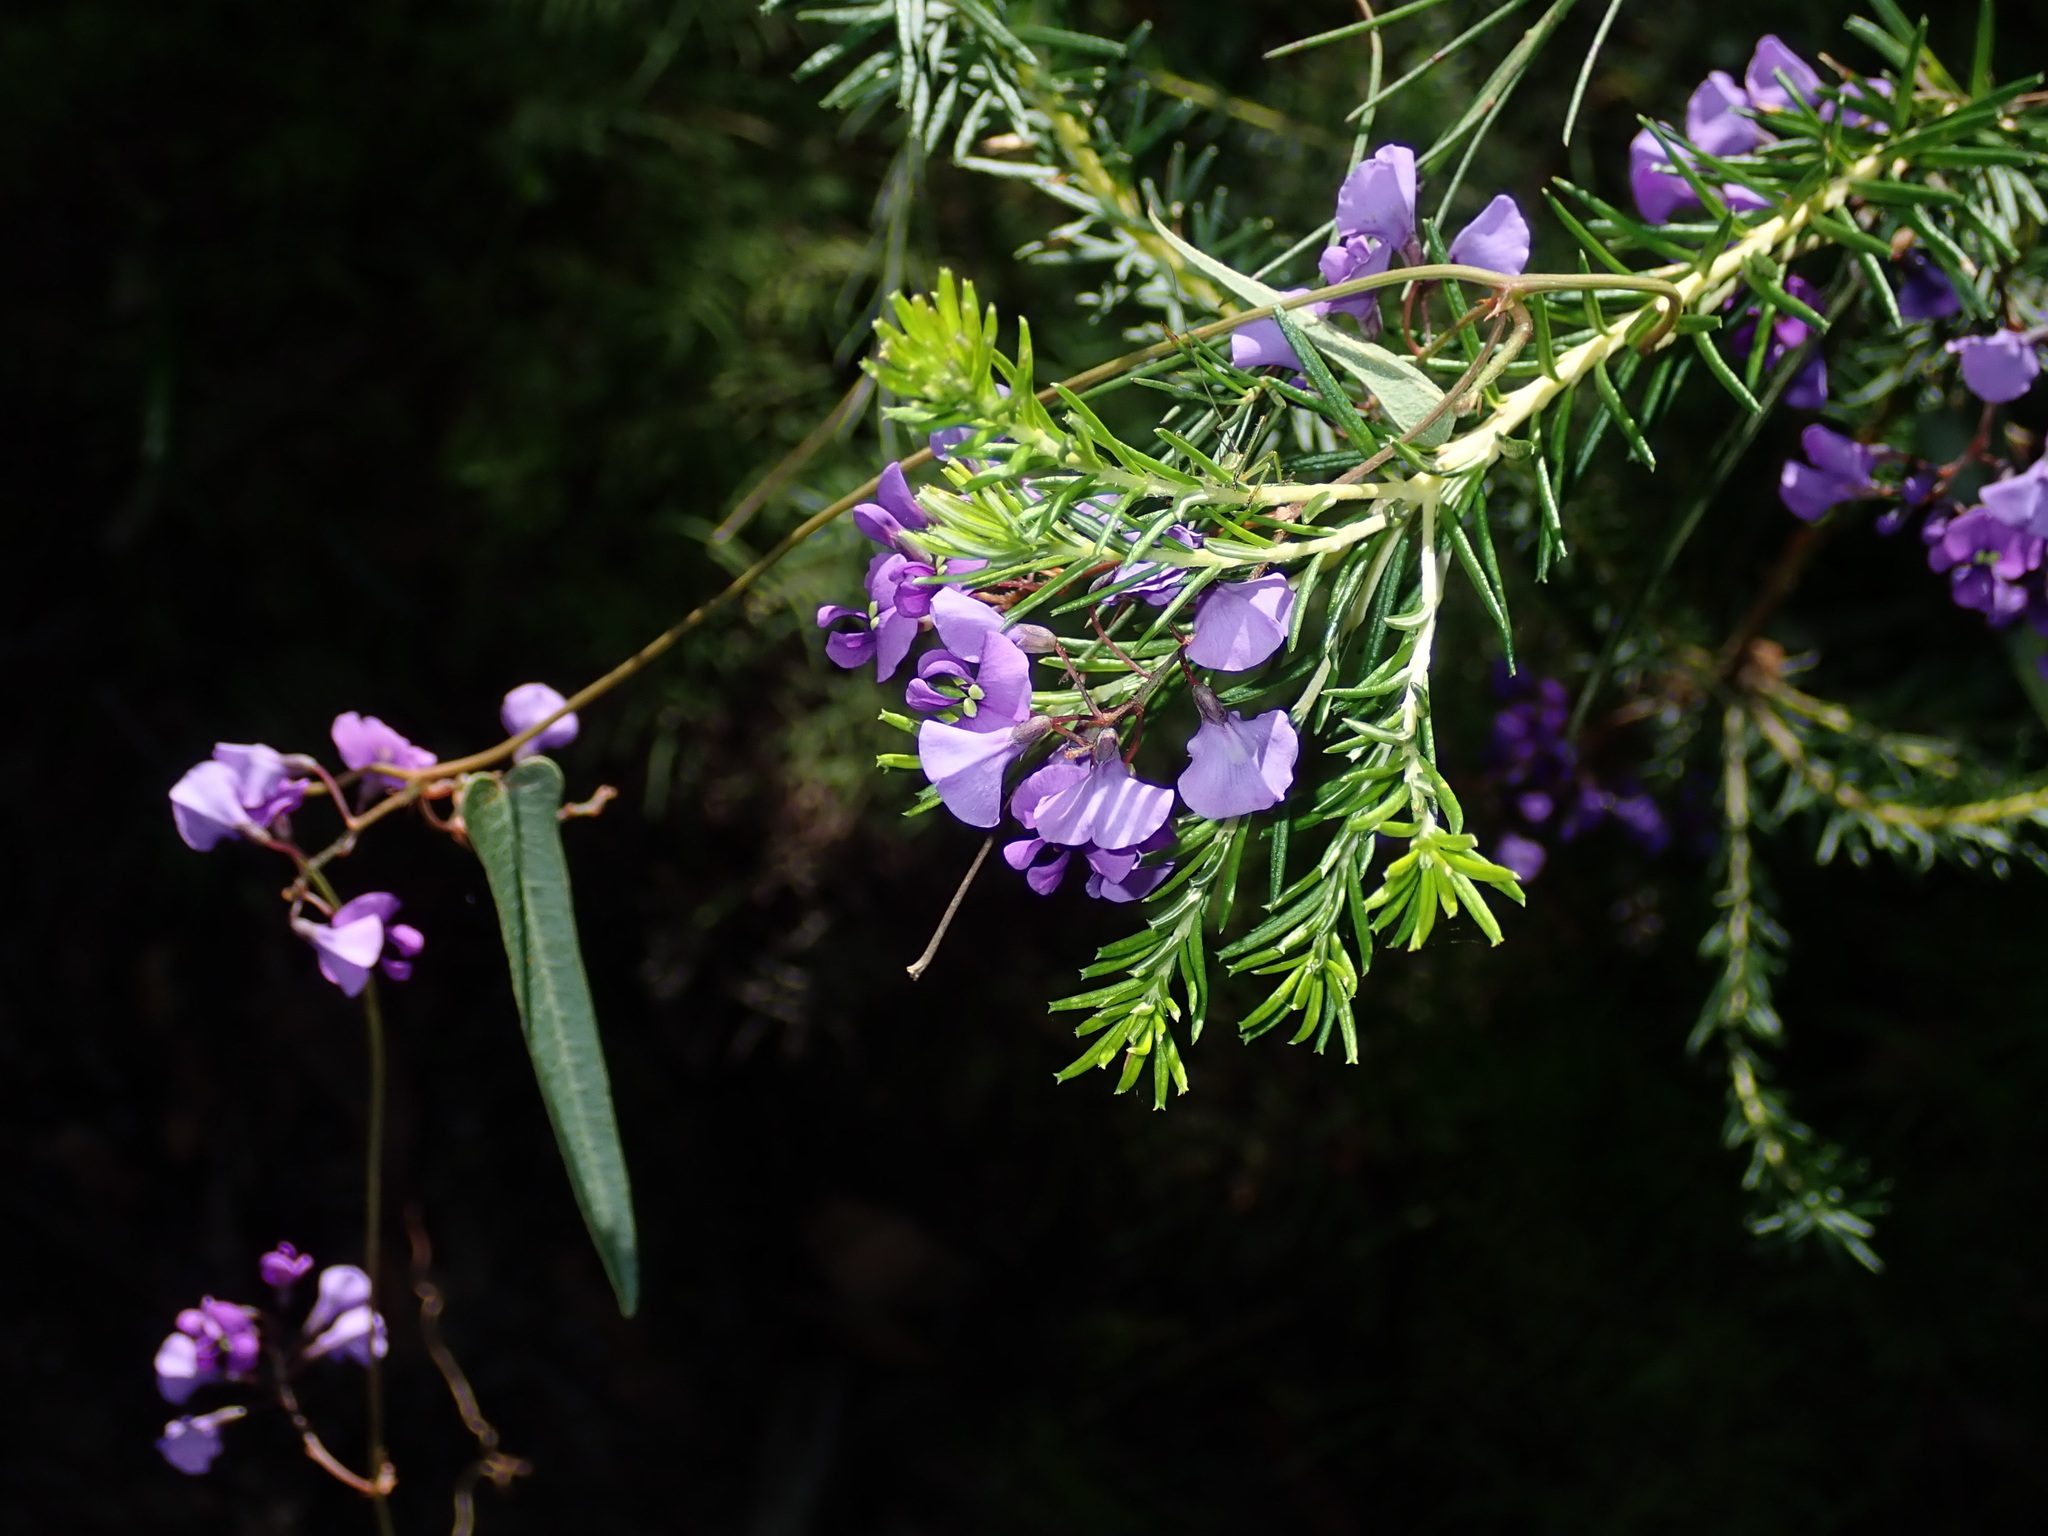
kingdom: Plantae
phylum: Tracheophyta
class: Magnoliopsida
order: Fabales
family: Fabaceae
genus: Hardenbergia
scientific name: Hardenbergia violacea
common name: Coral-pea
